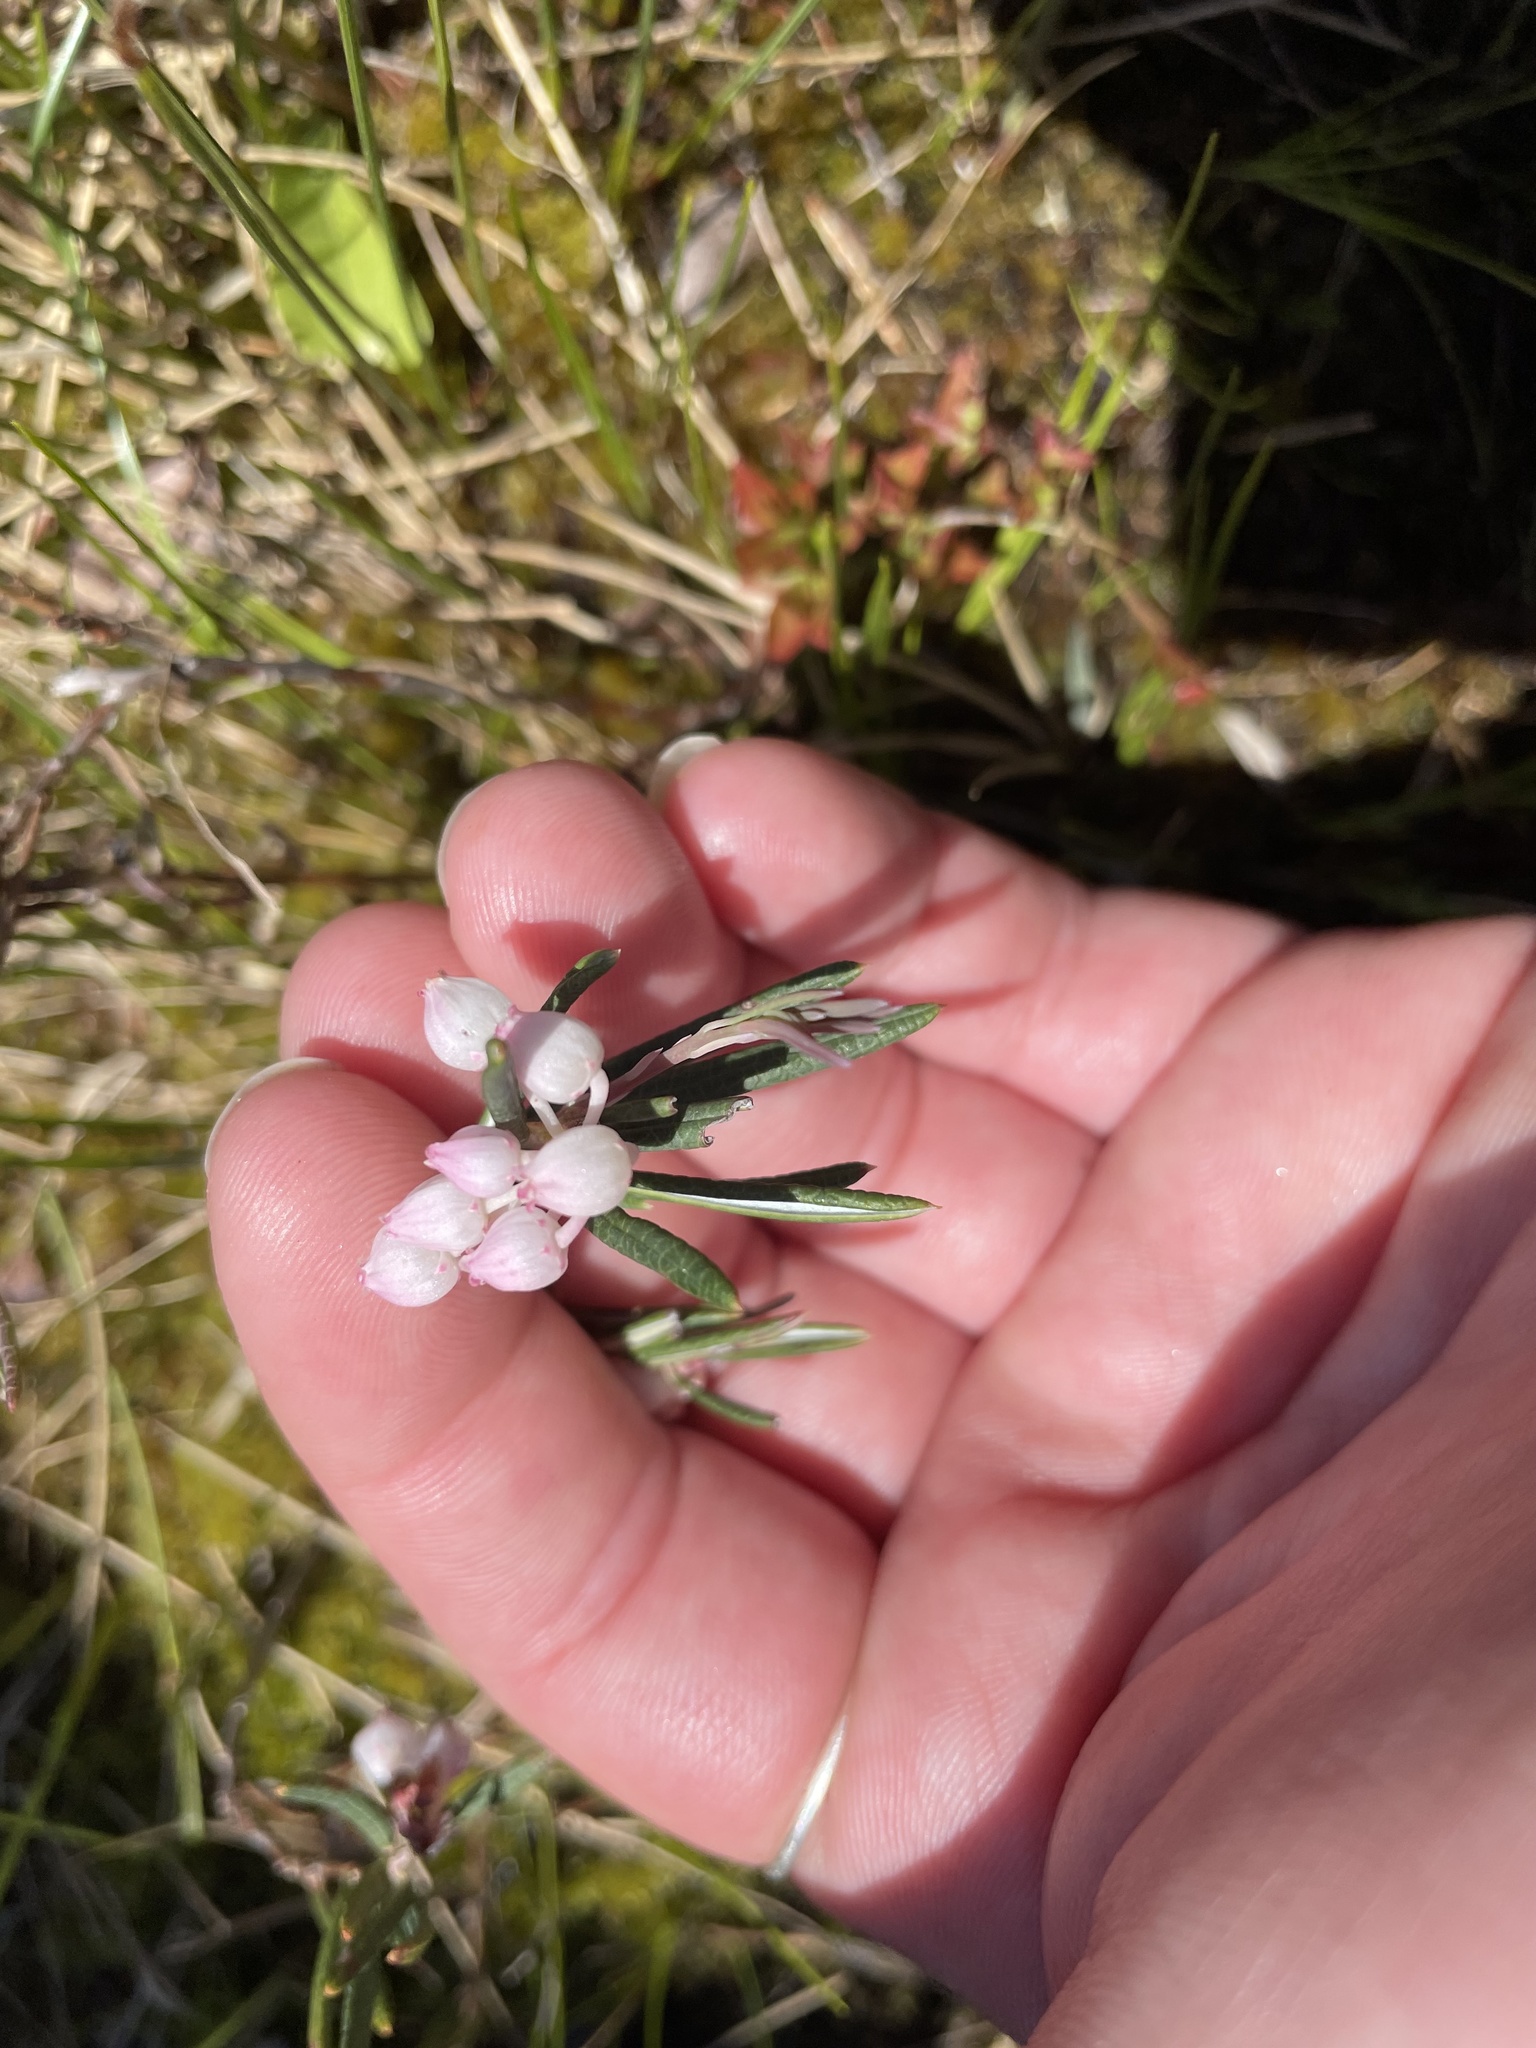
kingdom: Plantae
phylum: Tracheophyta
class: Magnoliopsida
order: Ericales
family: Ericaceae
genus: Andromeda
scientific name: Andromeda polifolia
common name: Bog-rosemary
